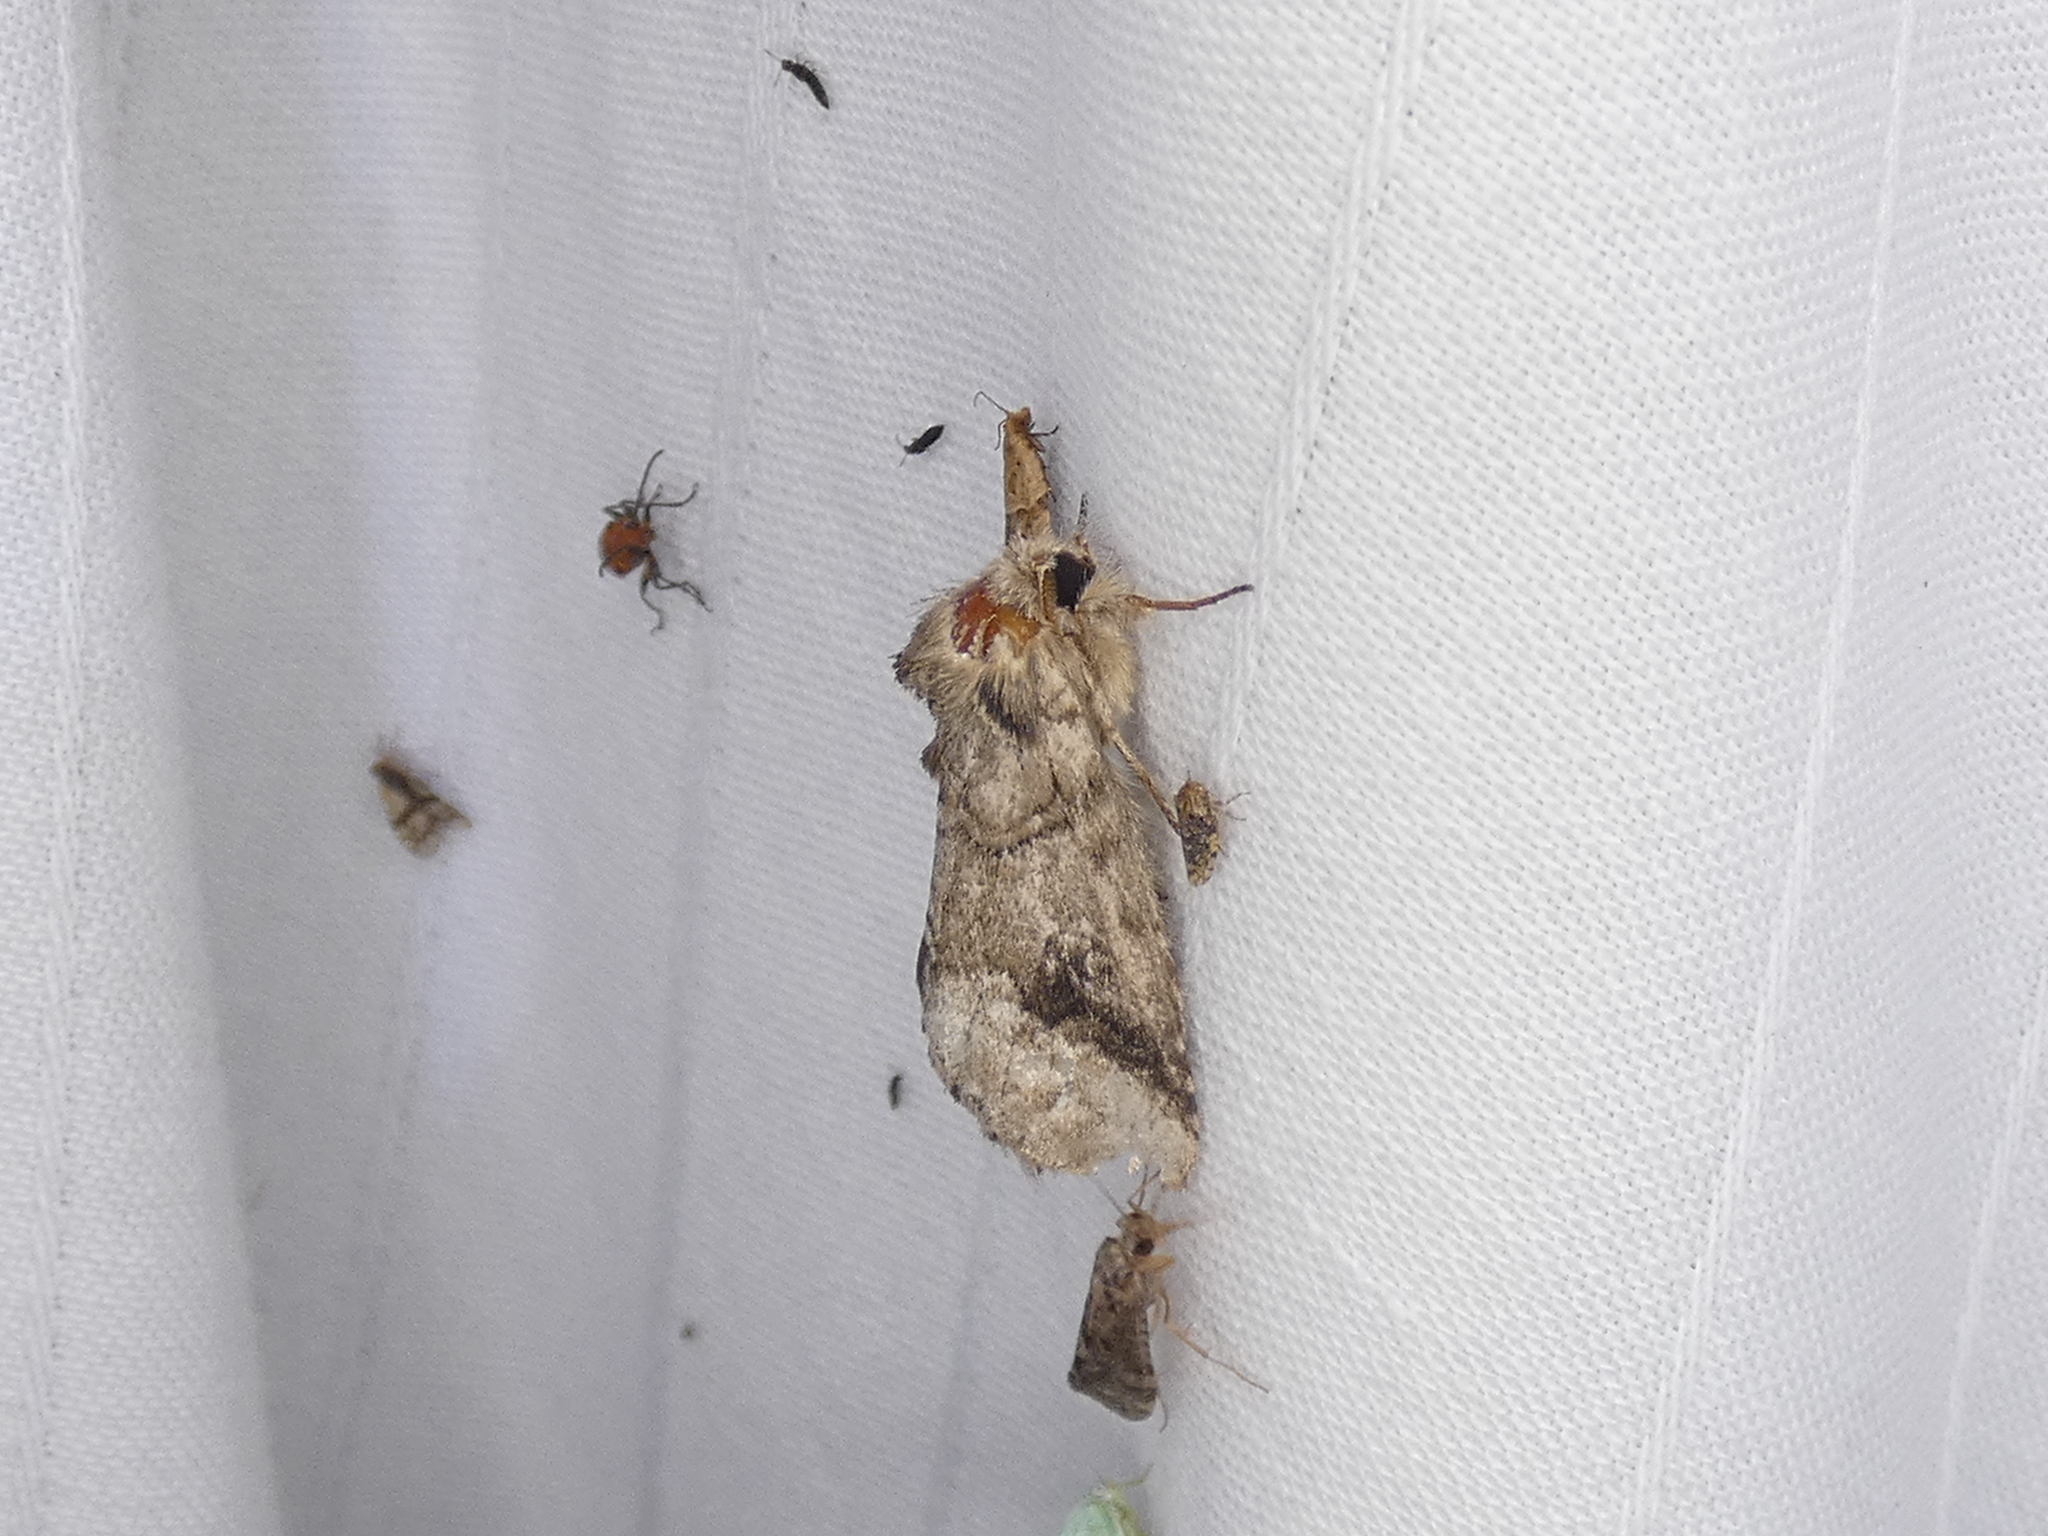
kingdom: Animalia
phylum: Arthropoda
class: Insecta
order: Lepidoptera
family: Notodontidae
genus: Lochmaeus
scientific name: Lochmaeus bilineata
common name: Double-lined prominent
